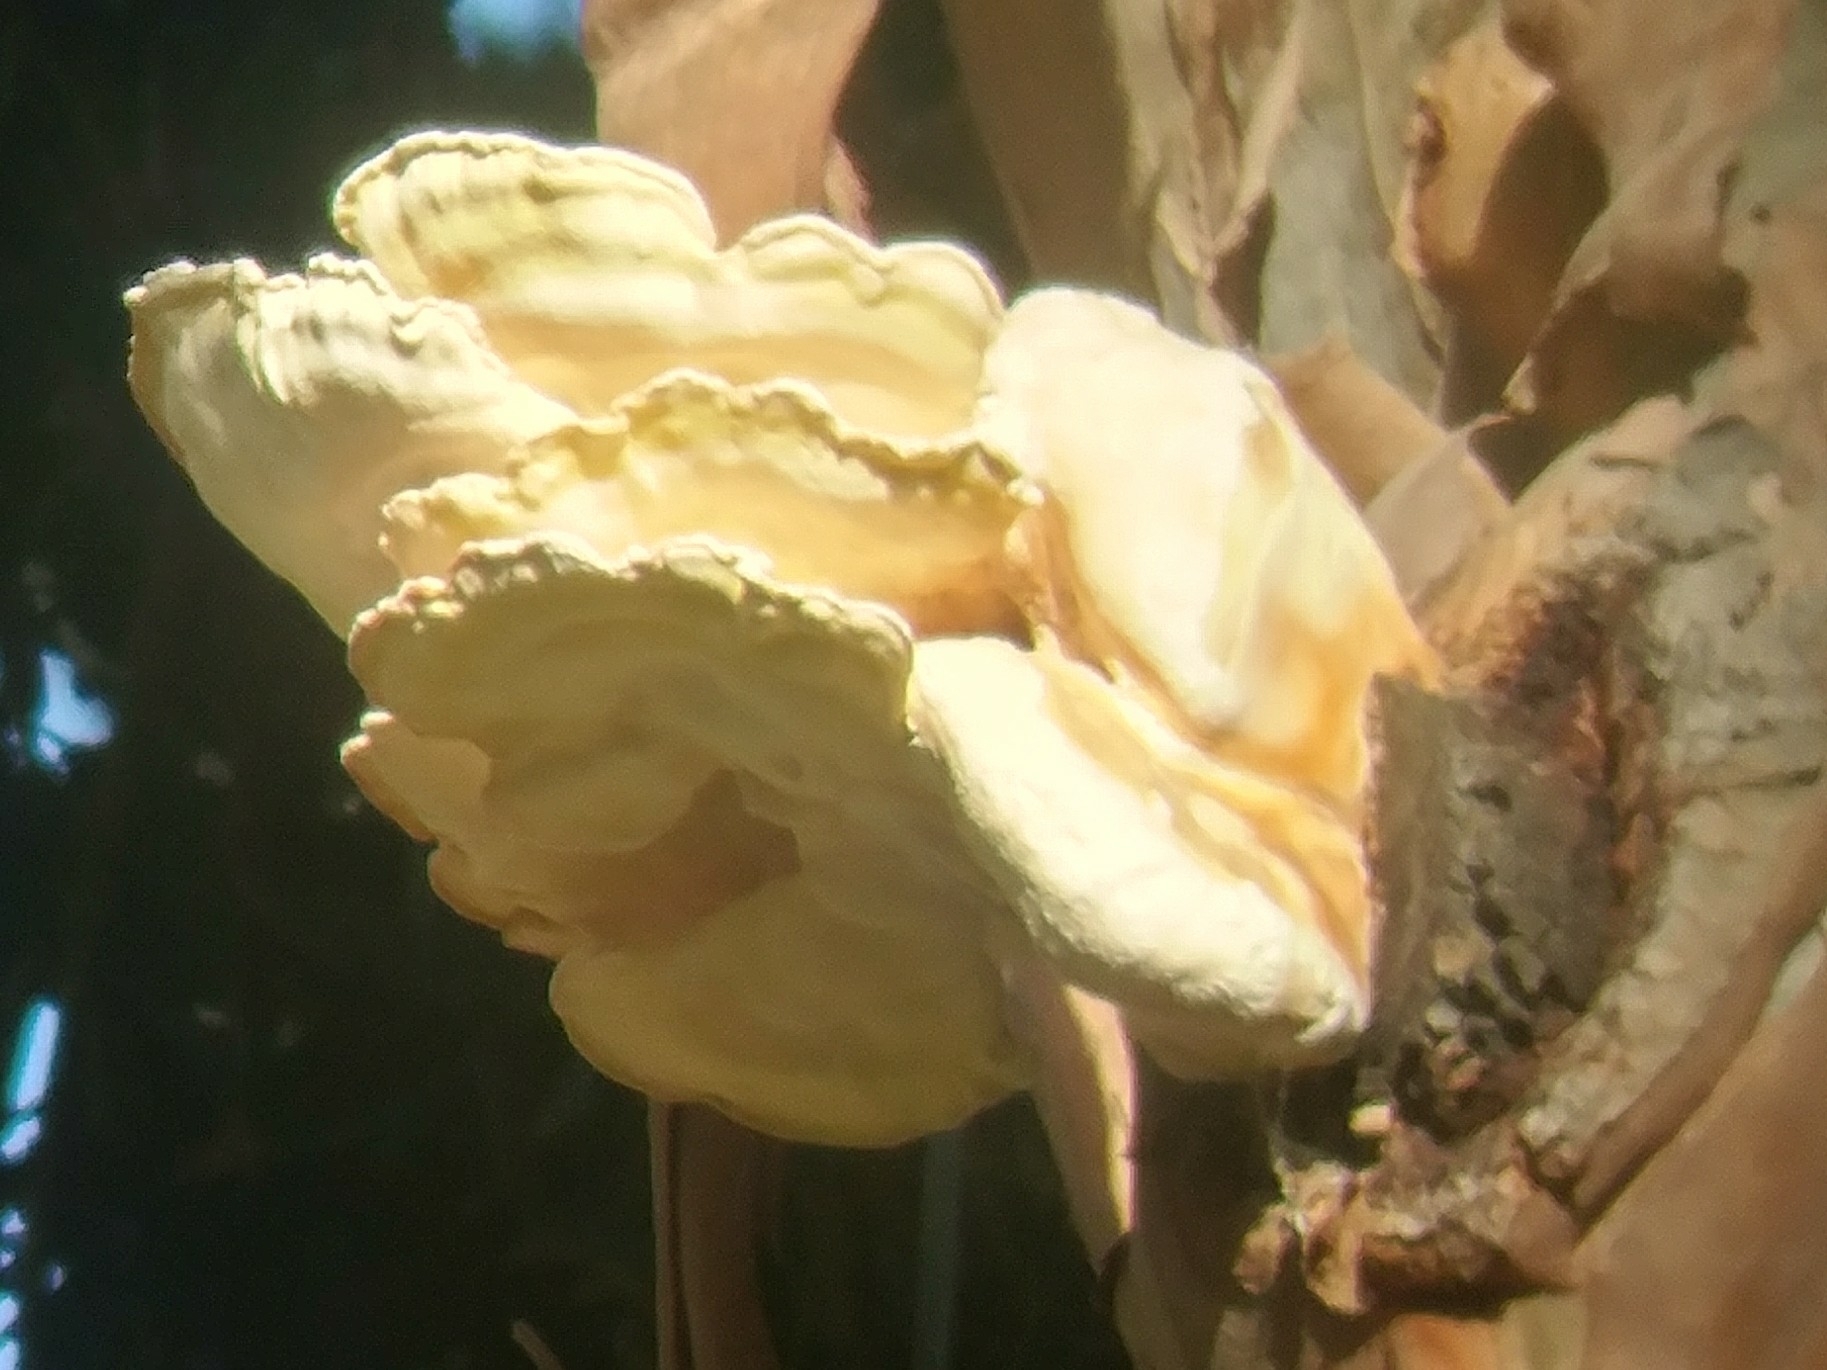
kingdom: Fungi
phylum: Basidiomycota
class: Agaricomycetes
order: Polyporales
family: Laetiporaceae
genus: Laetiporus
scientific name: Laetiporus gilbertsonii
